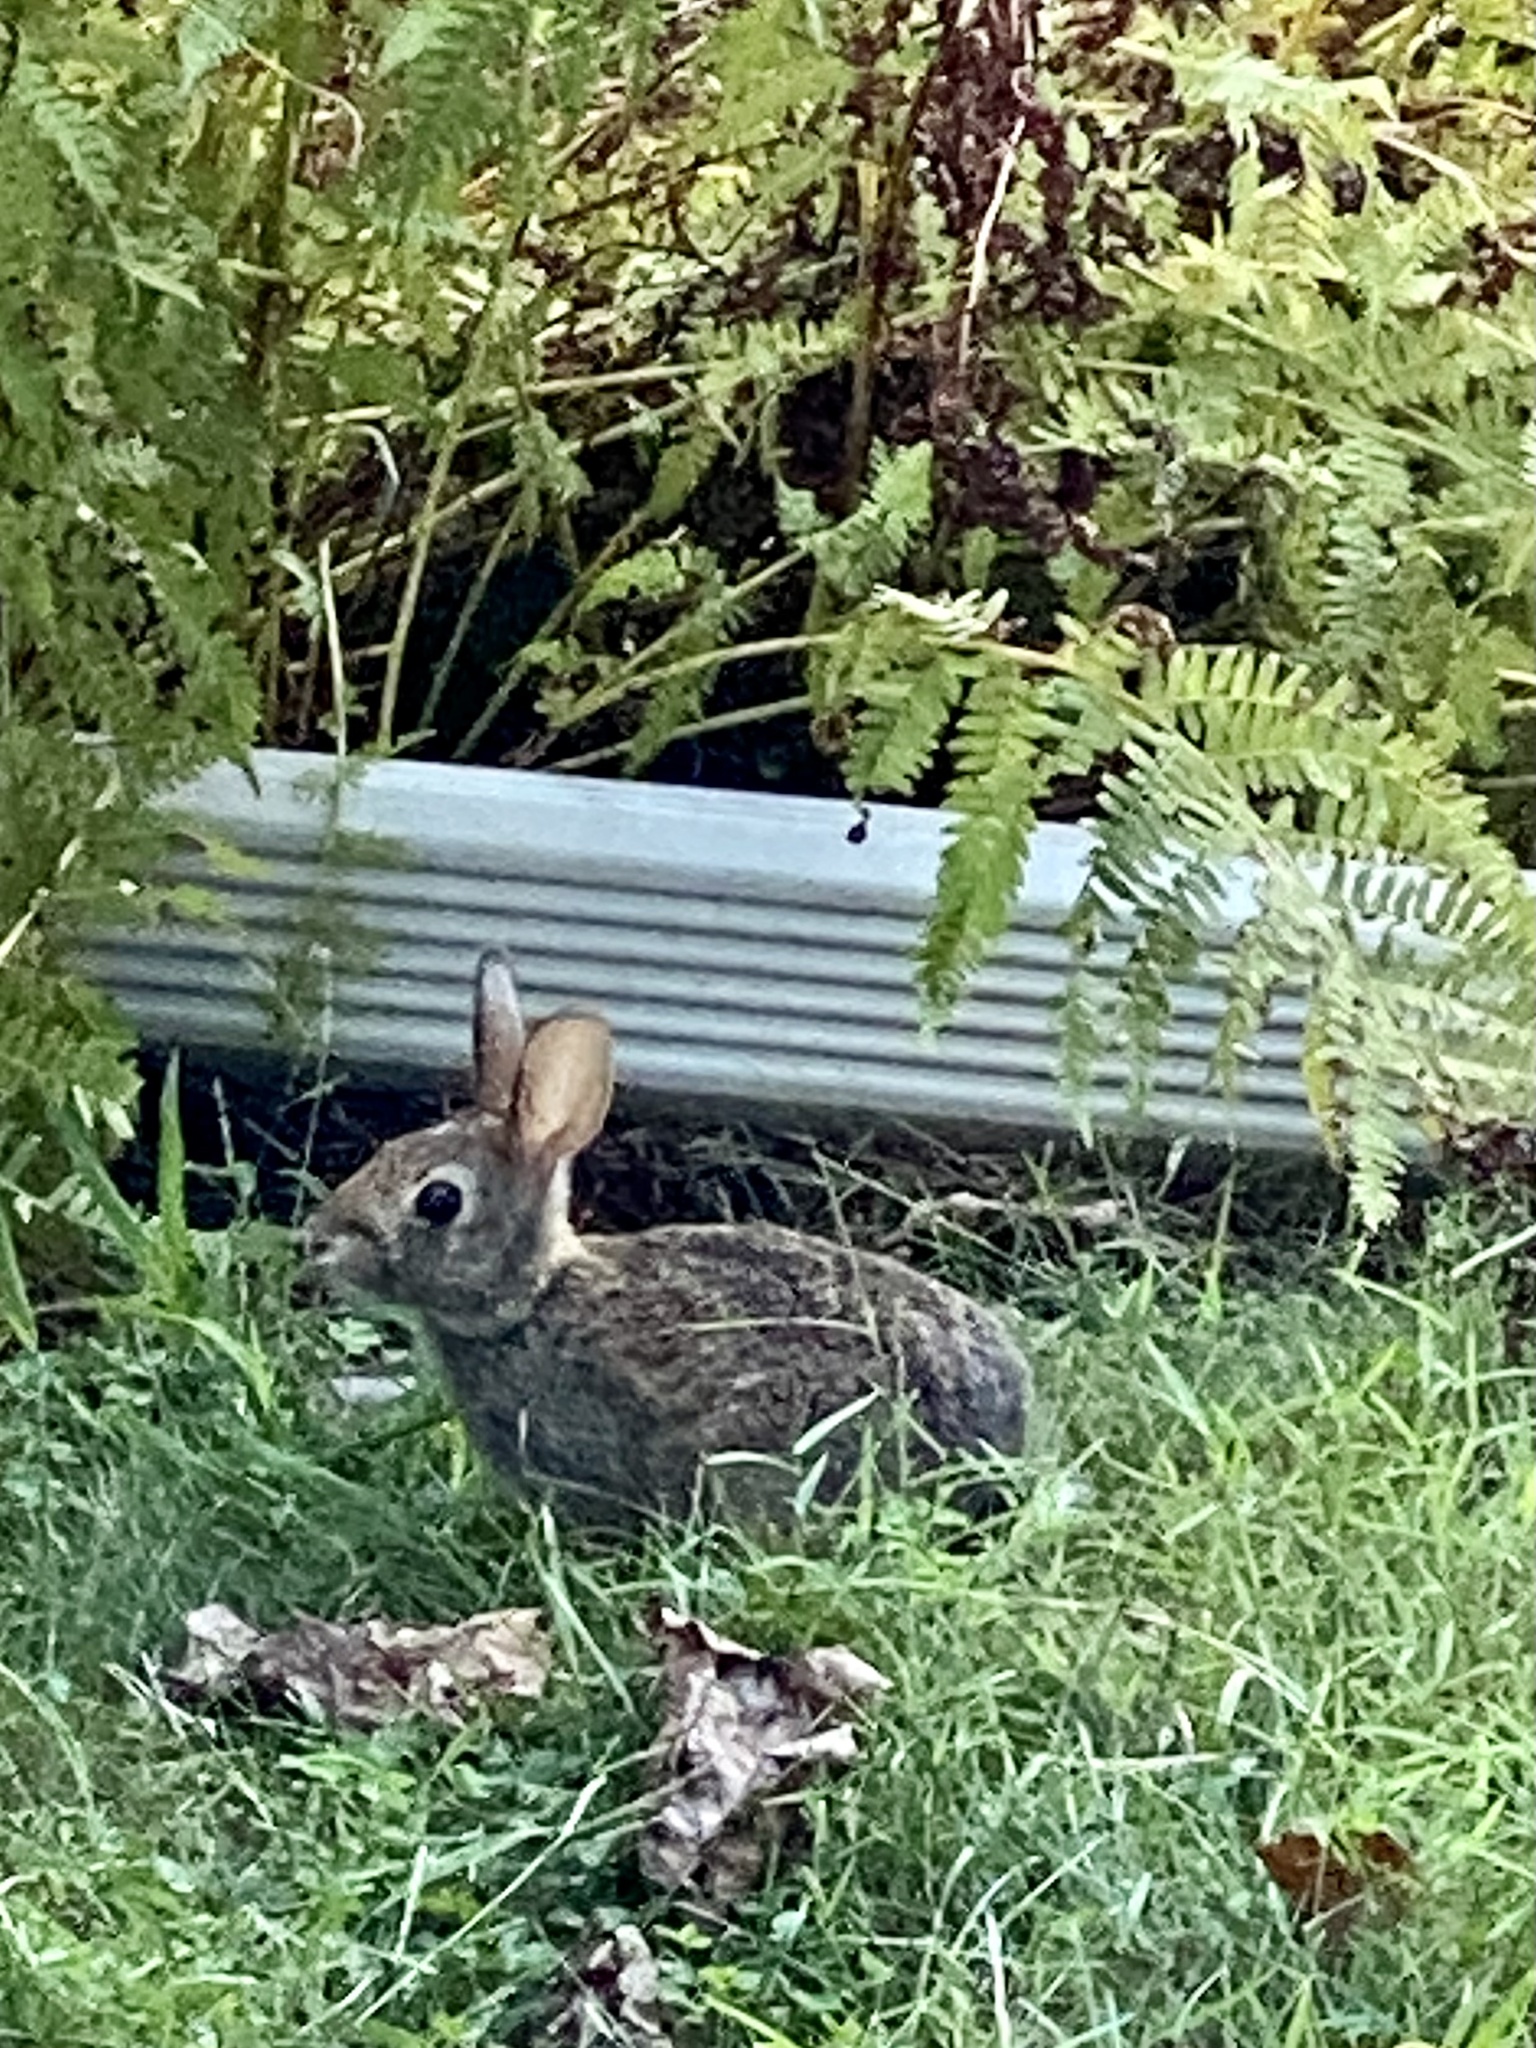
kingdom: Animalia
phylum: Chordata
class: Mammalia
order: Lagomorpha
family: Leporidae
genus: Sylvilagus
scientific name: Sylvilagus floridanus
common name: Eastern cottontail
